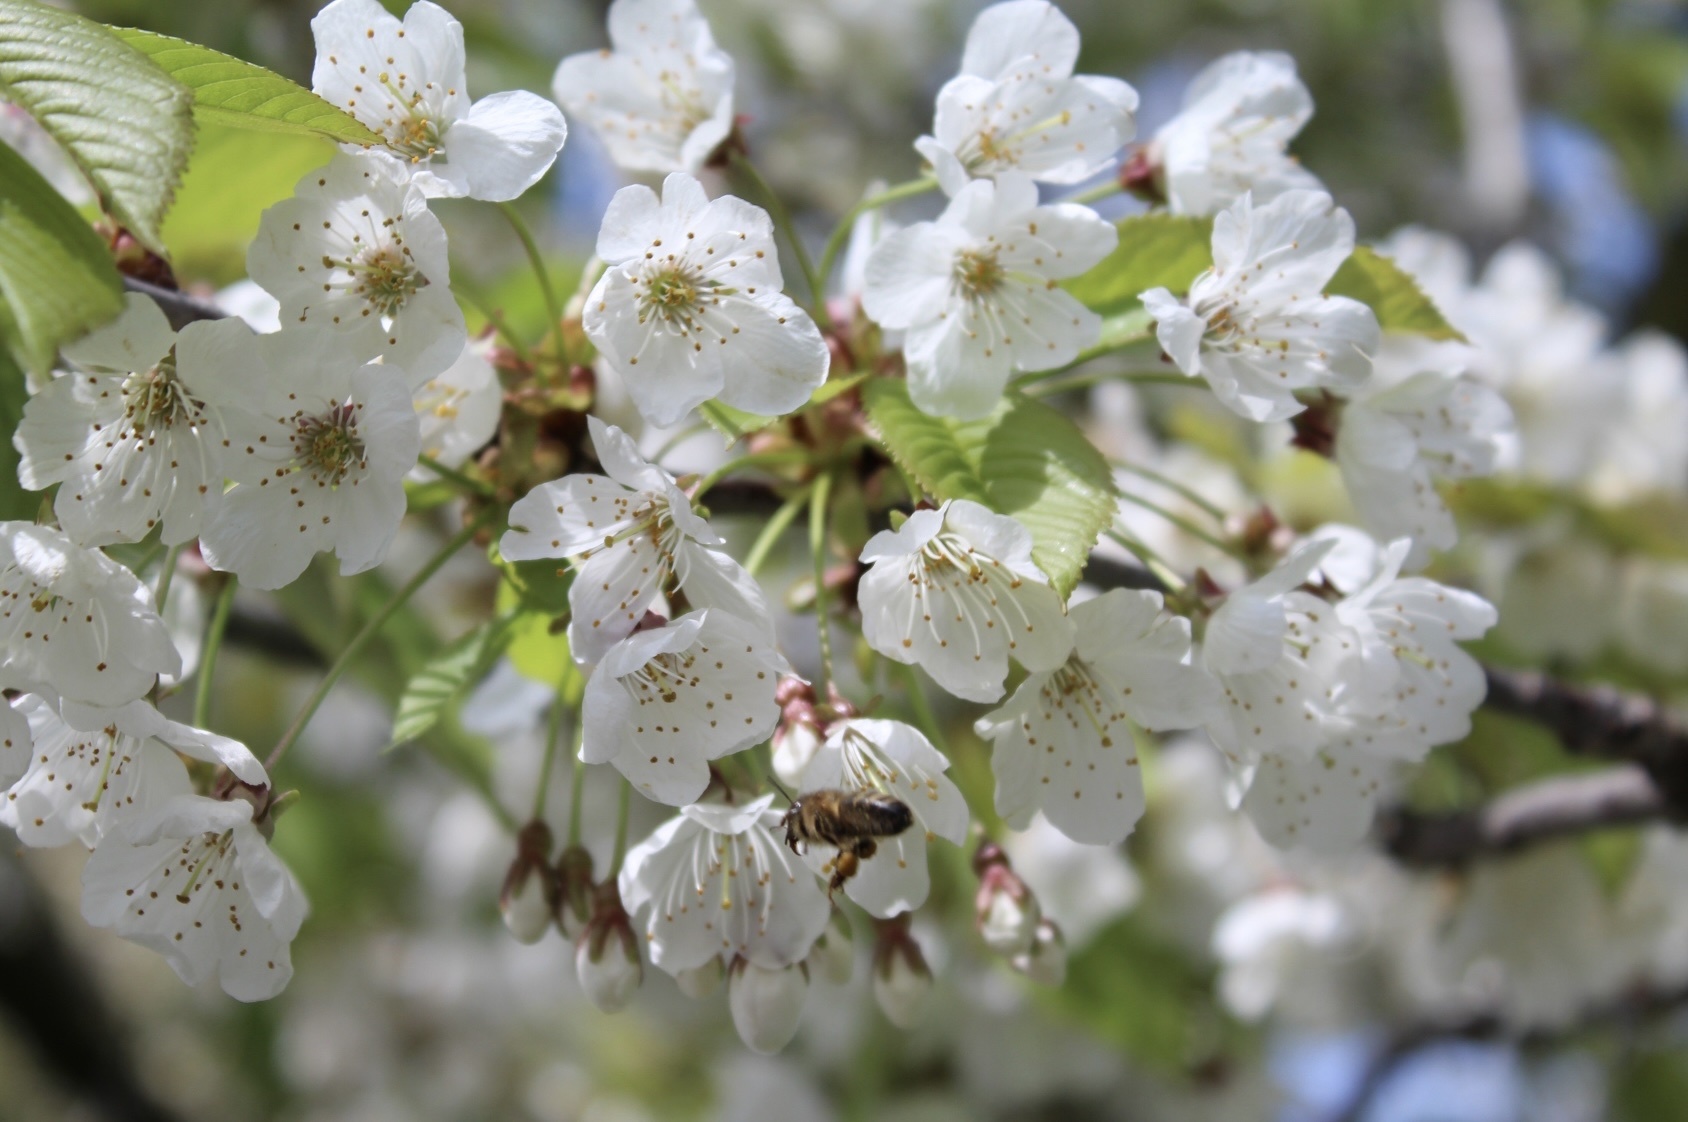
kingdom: Animalia
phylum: Arthropoda
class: Insecta
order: Hymenoptera
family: Apidae
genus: Apis
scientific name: Apis mellifera
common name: Honey bee
